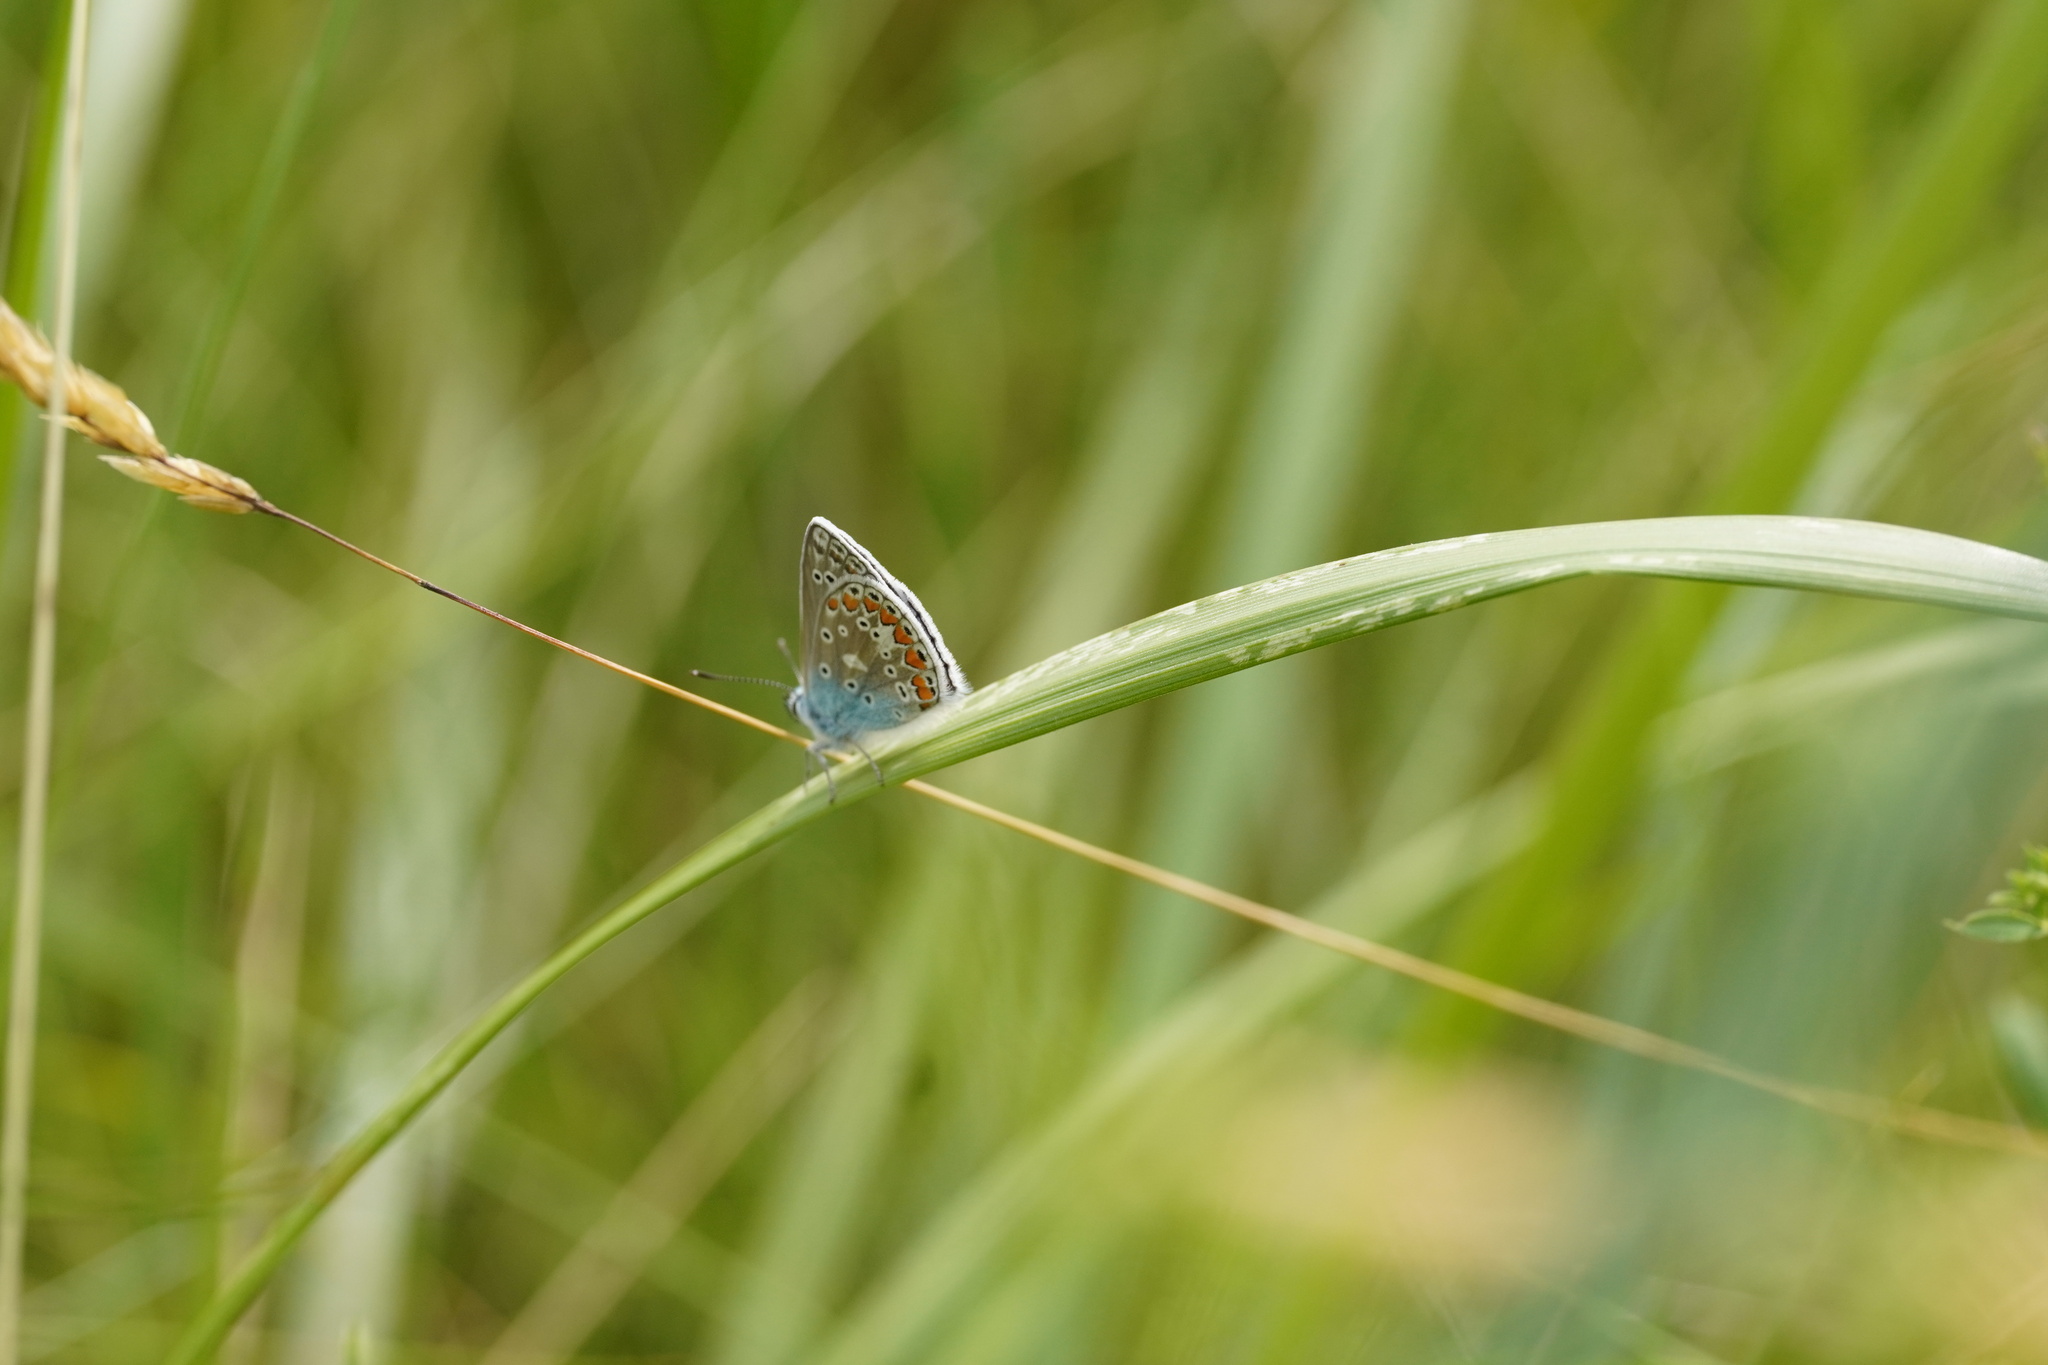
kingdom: Animalia
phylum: Arthropoda
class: Insecta
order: Lepidoptera
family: Lycaenidae
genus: Polyommatus
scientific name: Polyommatus icarus
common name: Common blue
